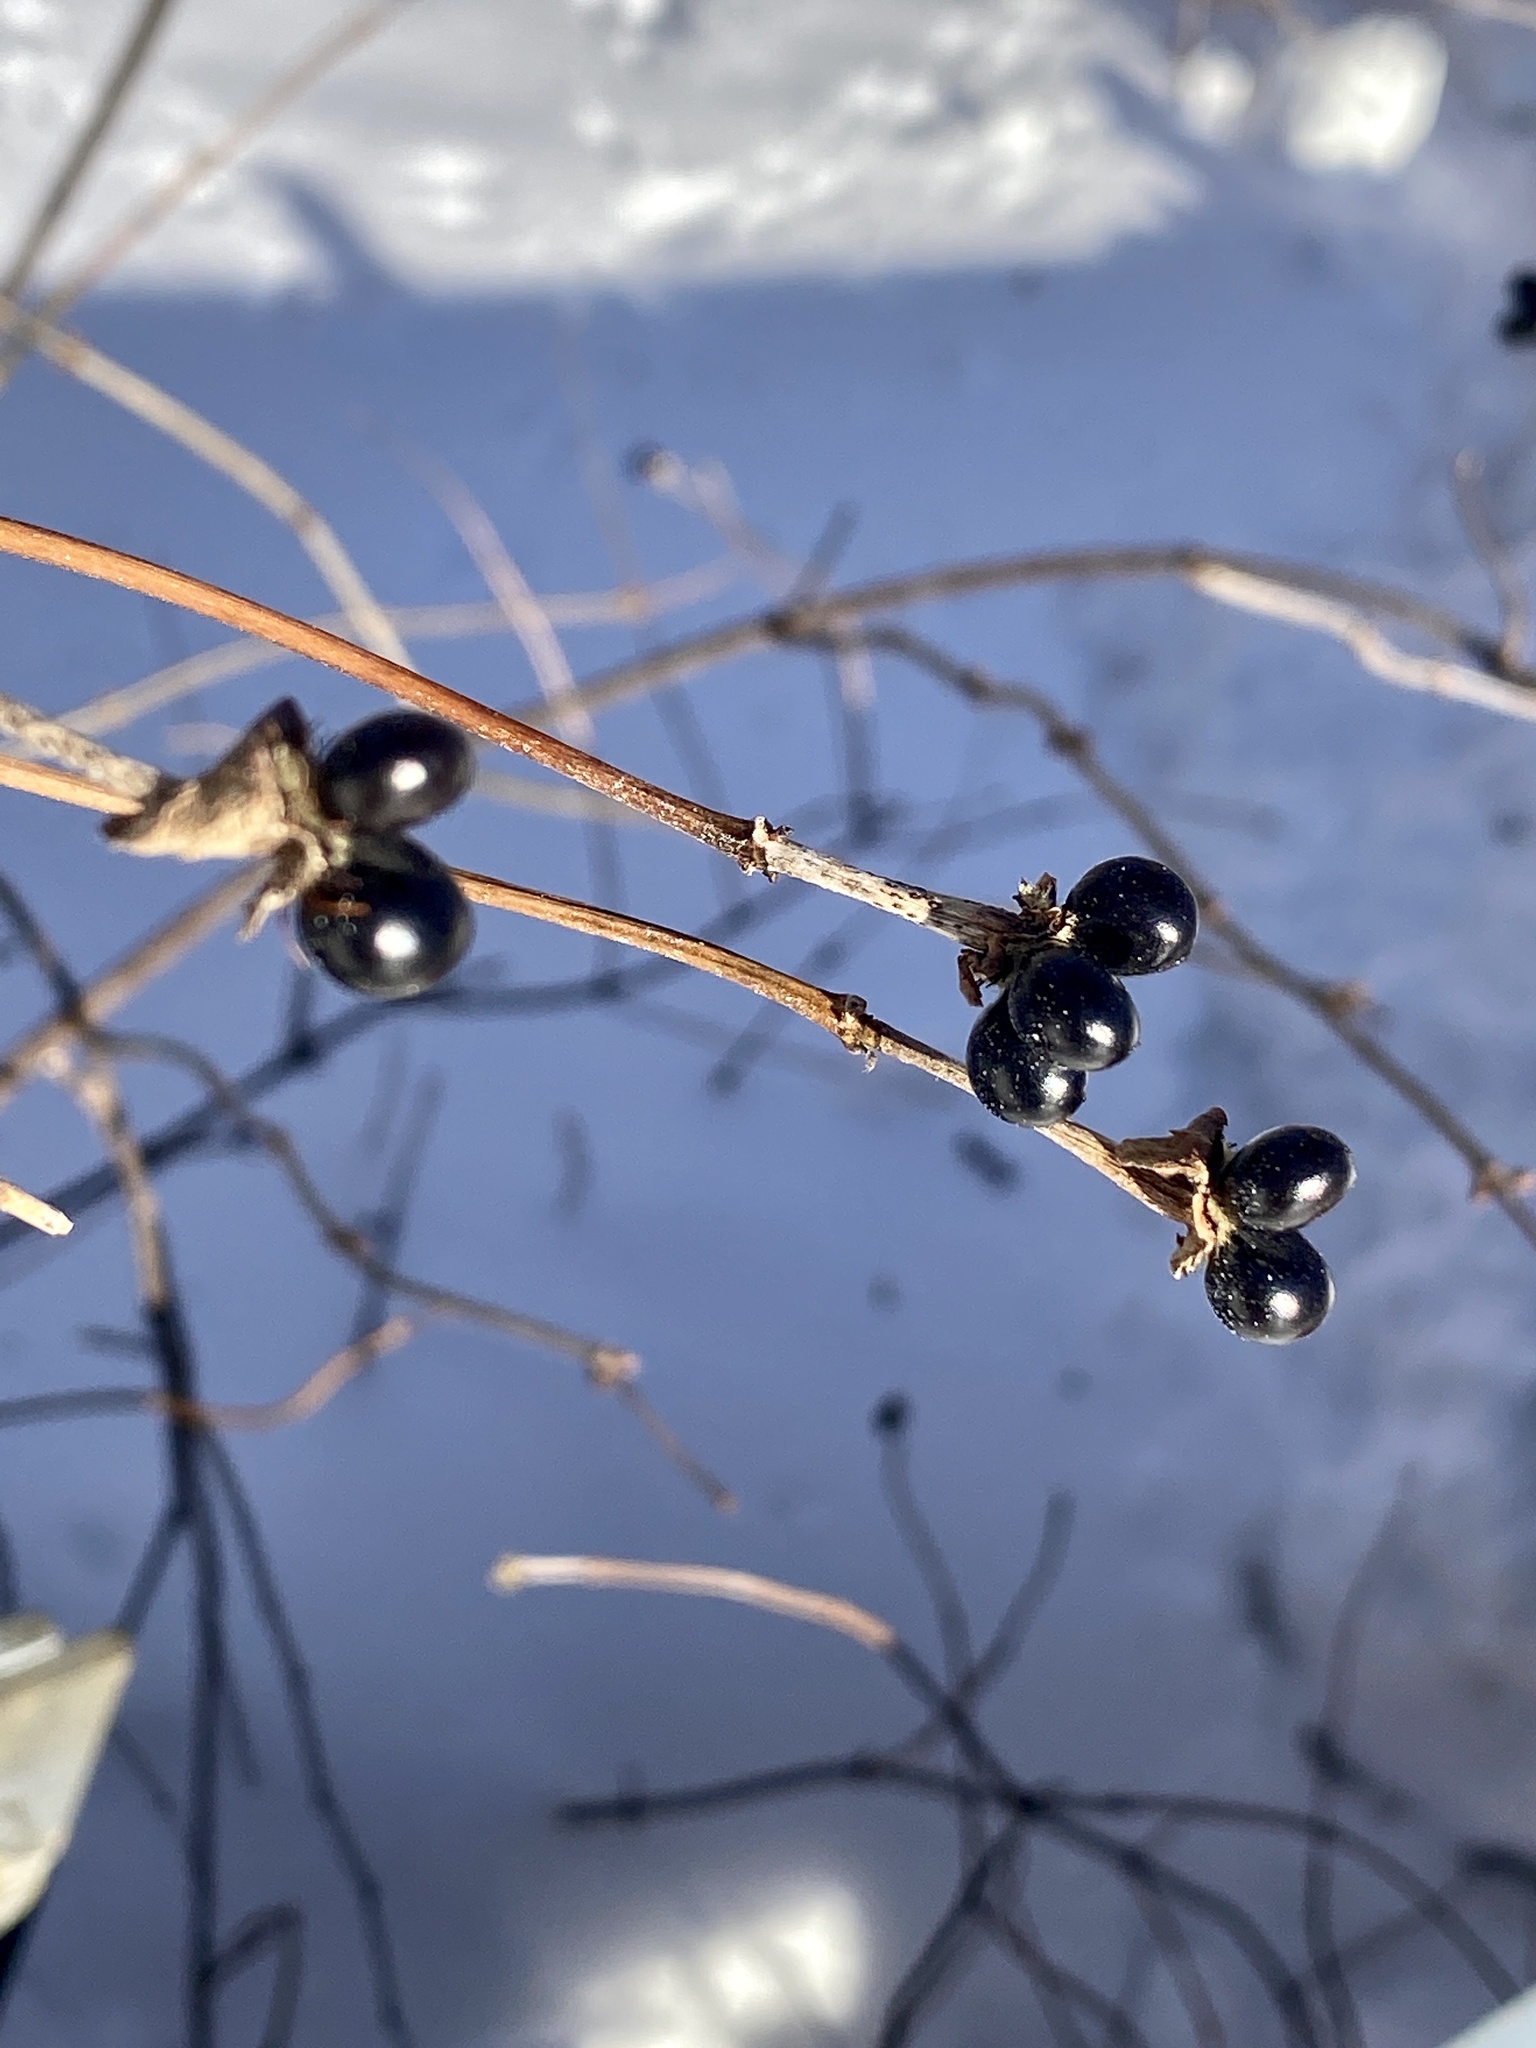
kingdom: Plantae
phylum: Tracheophyta
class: Magnoliopsida
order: Rosales
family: Rosaceae
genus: Rhodotypos
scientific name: Rhodotypos scandens
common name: Jetbead
